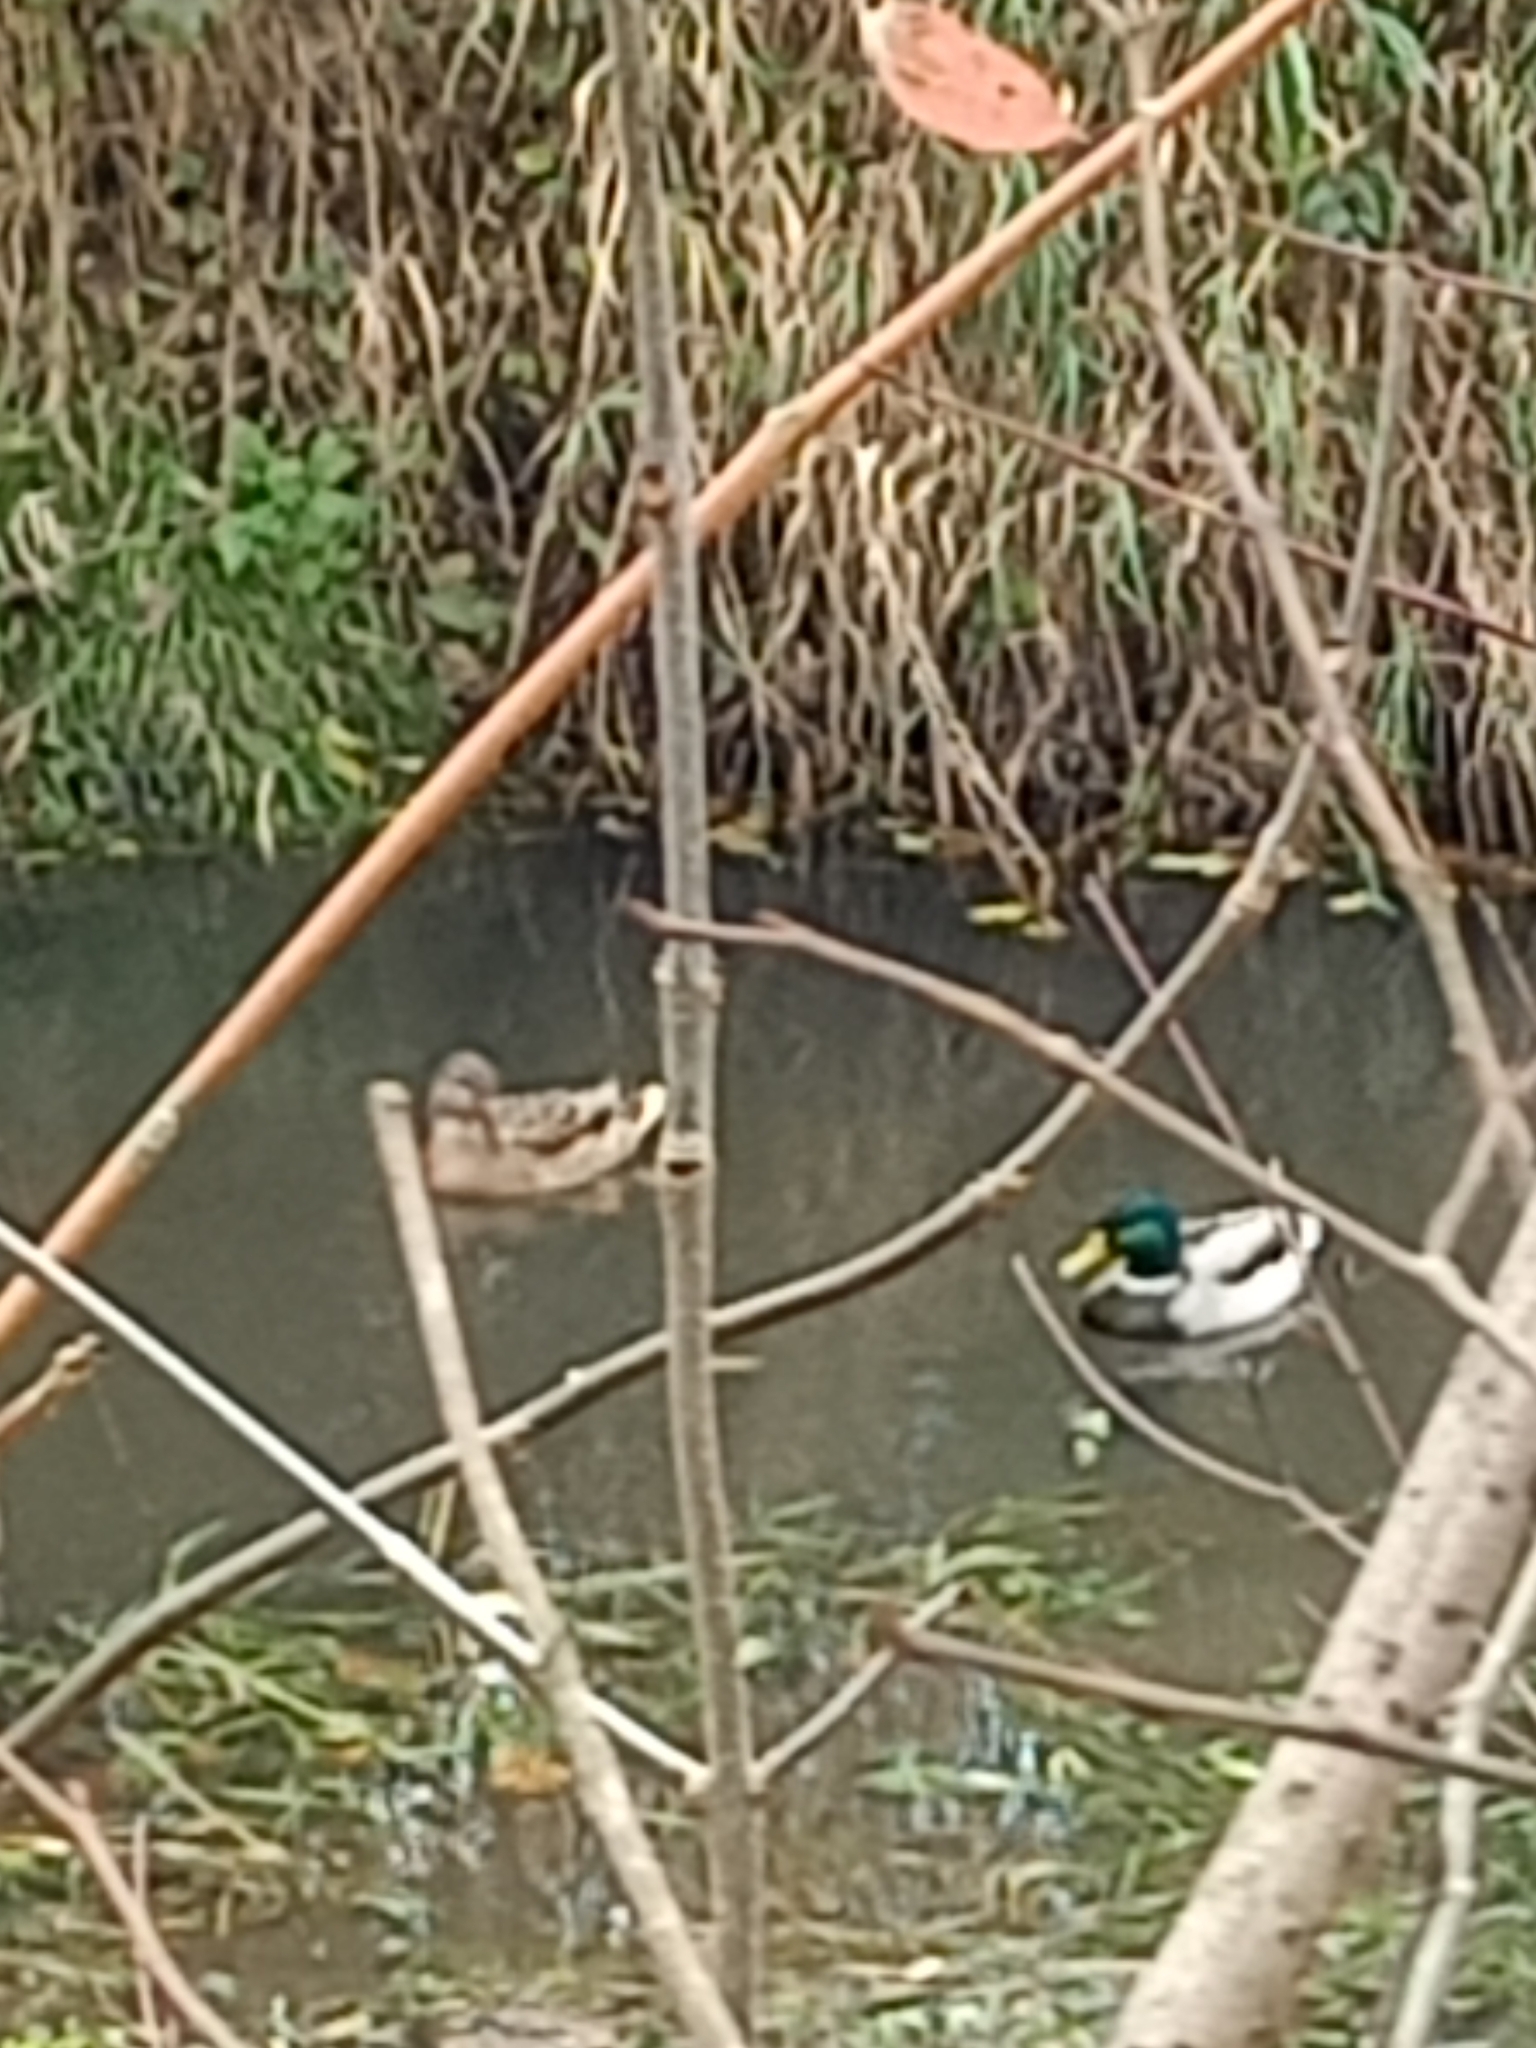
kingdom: Animalia
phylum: Chordata
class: Aves
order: Anseriformes
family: Anatidae
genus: Anas
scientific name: Anas platyrhynchos
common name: Mallard
